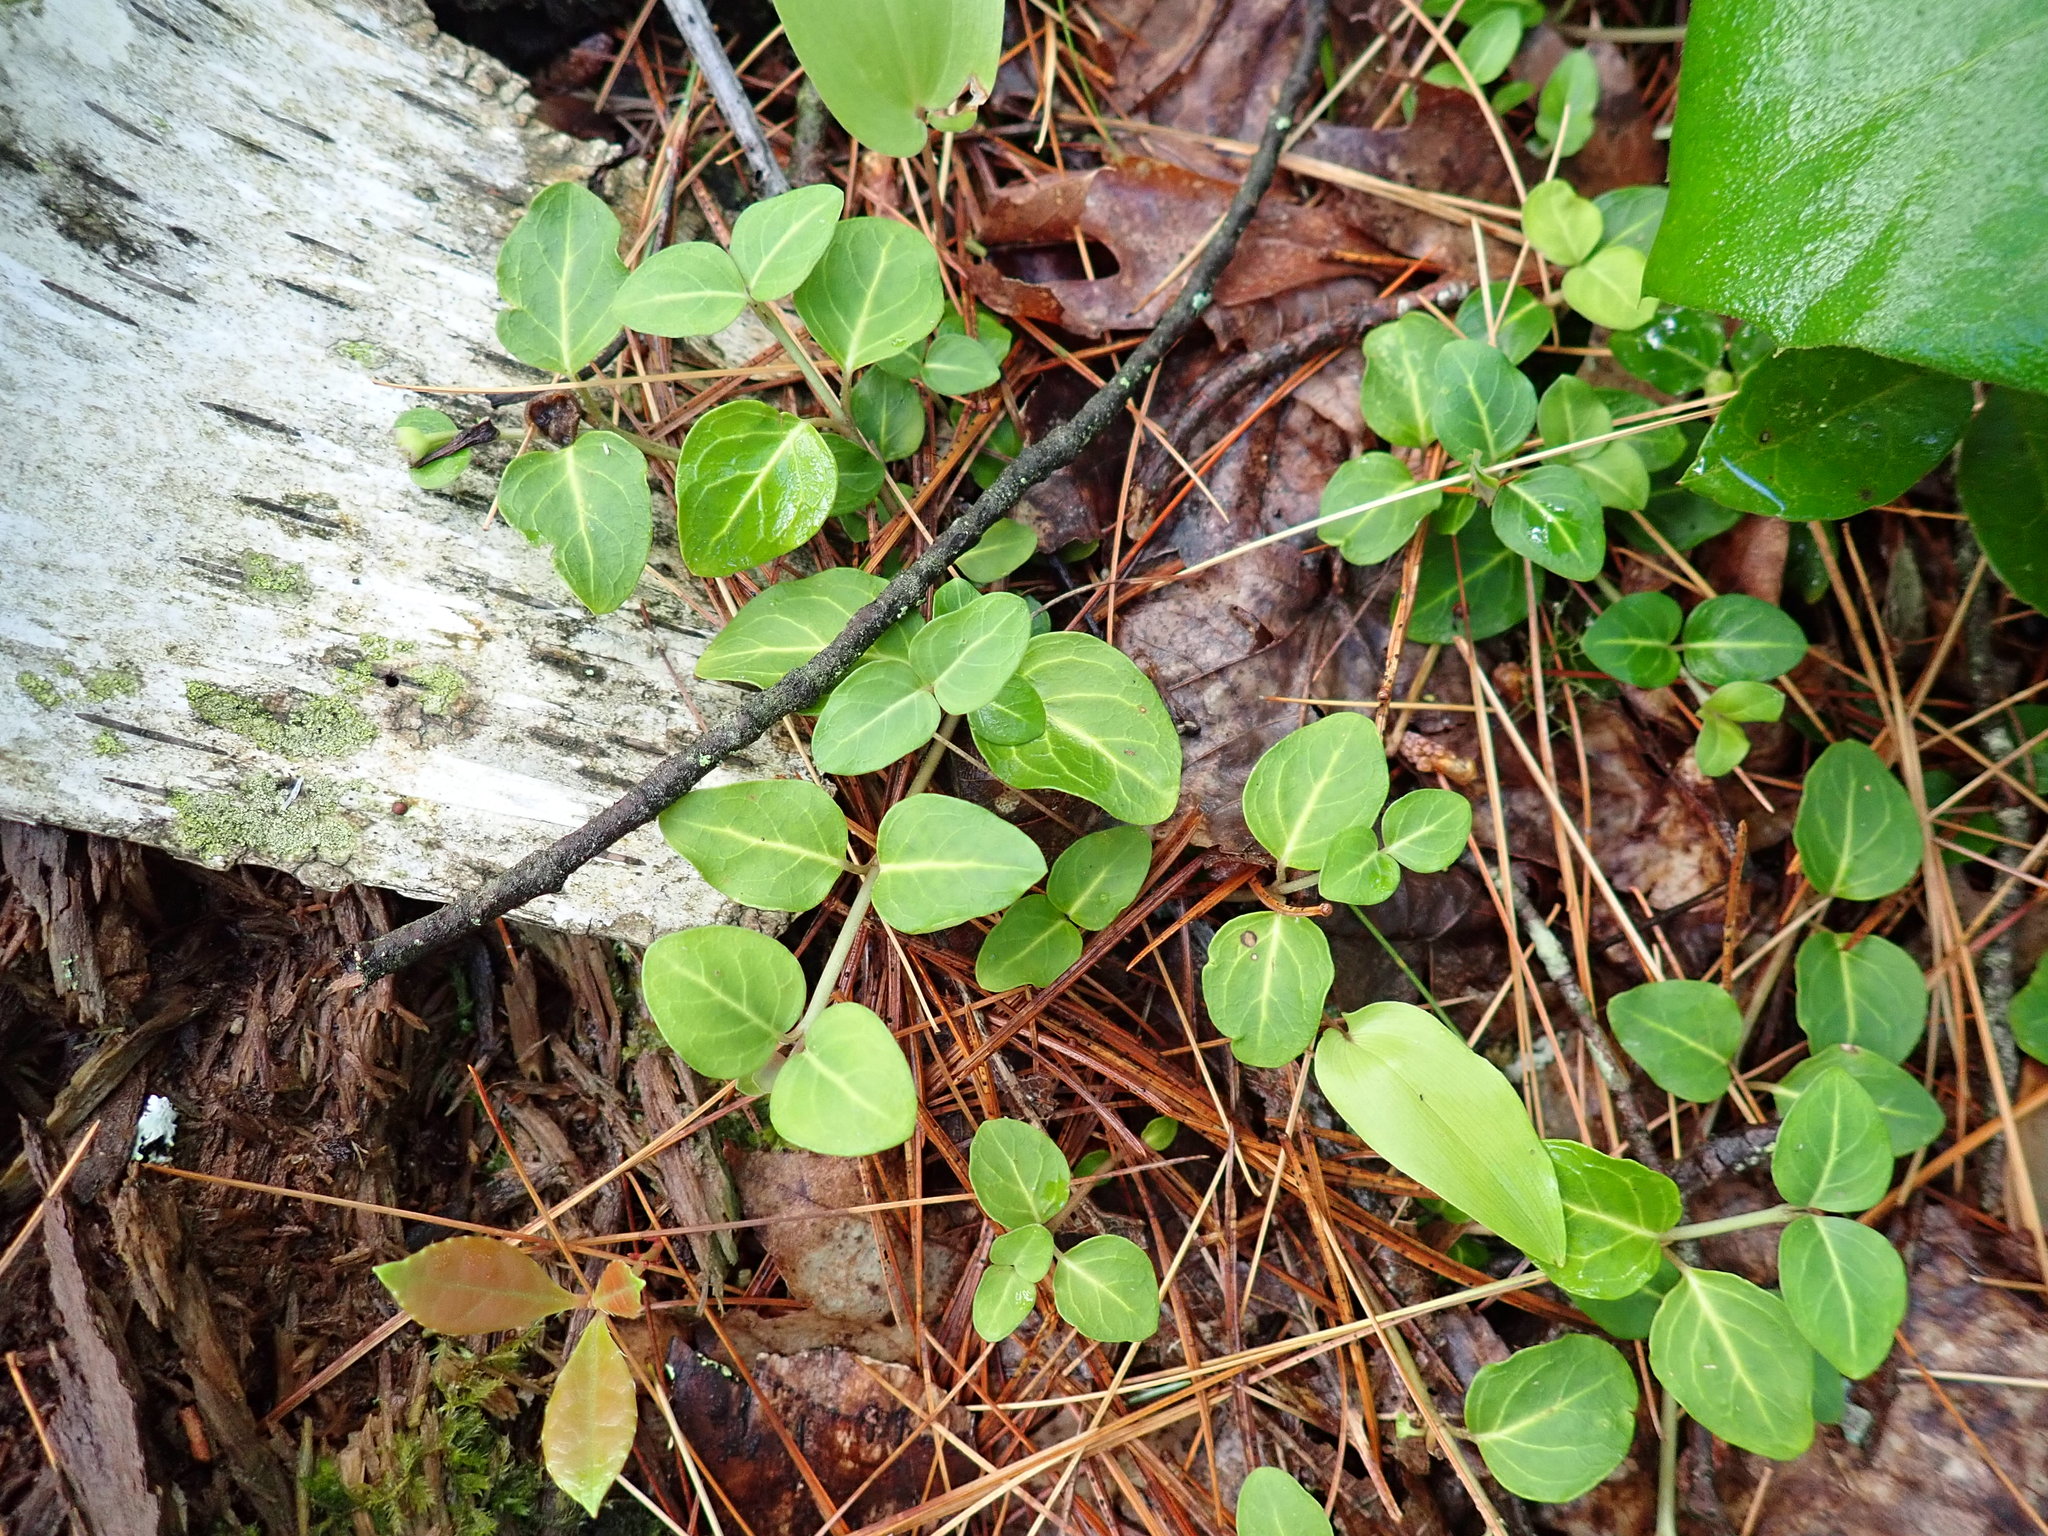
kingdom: Plantae
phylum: Tracheophyta
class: Magnoliopsida
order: Gentianales
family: Rubiaceae
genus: Mitchella
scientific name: Mitchella repens
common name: Partridge-berry
